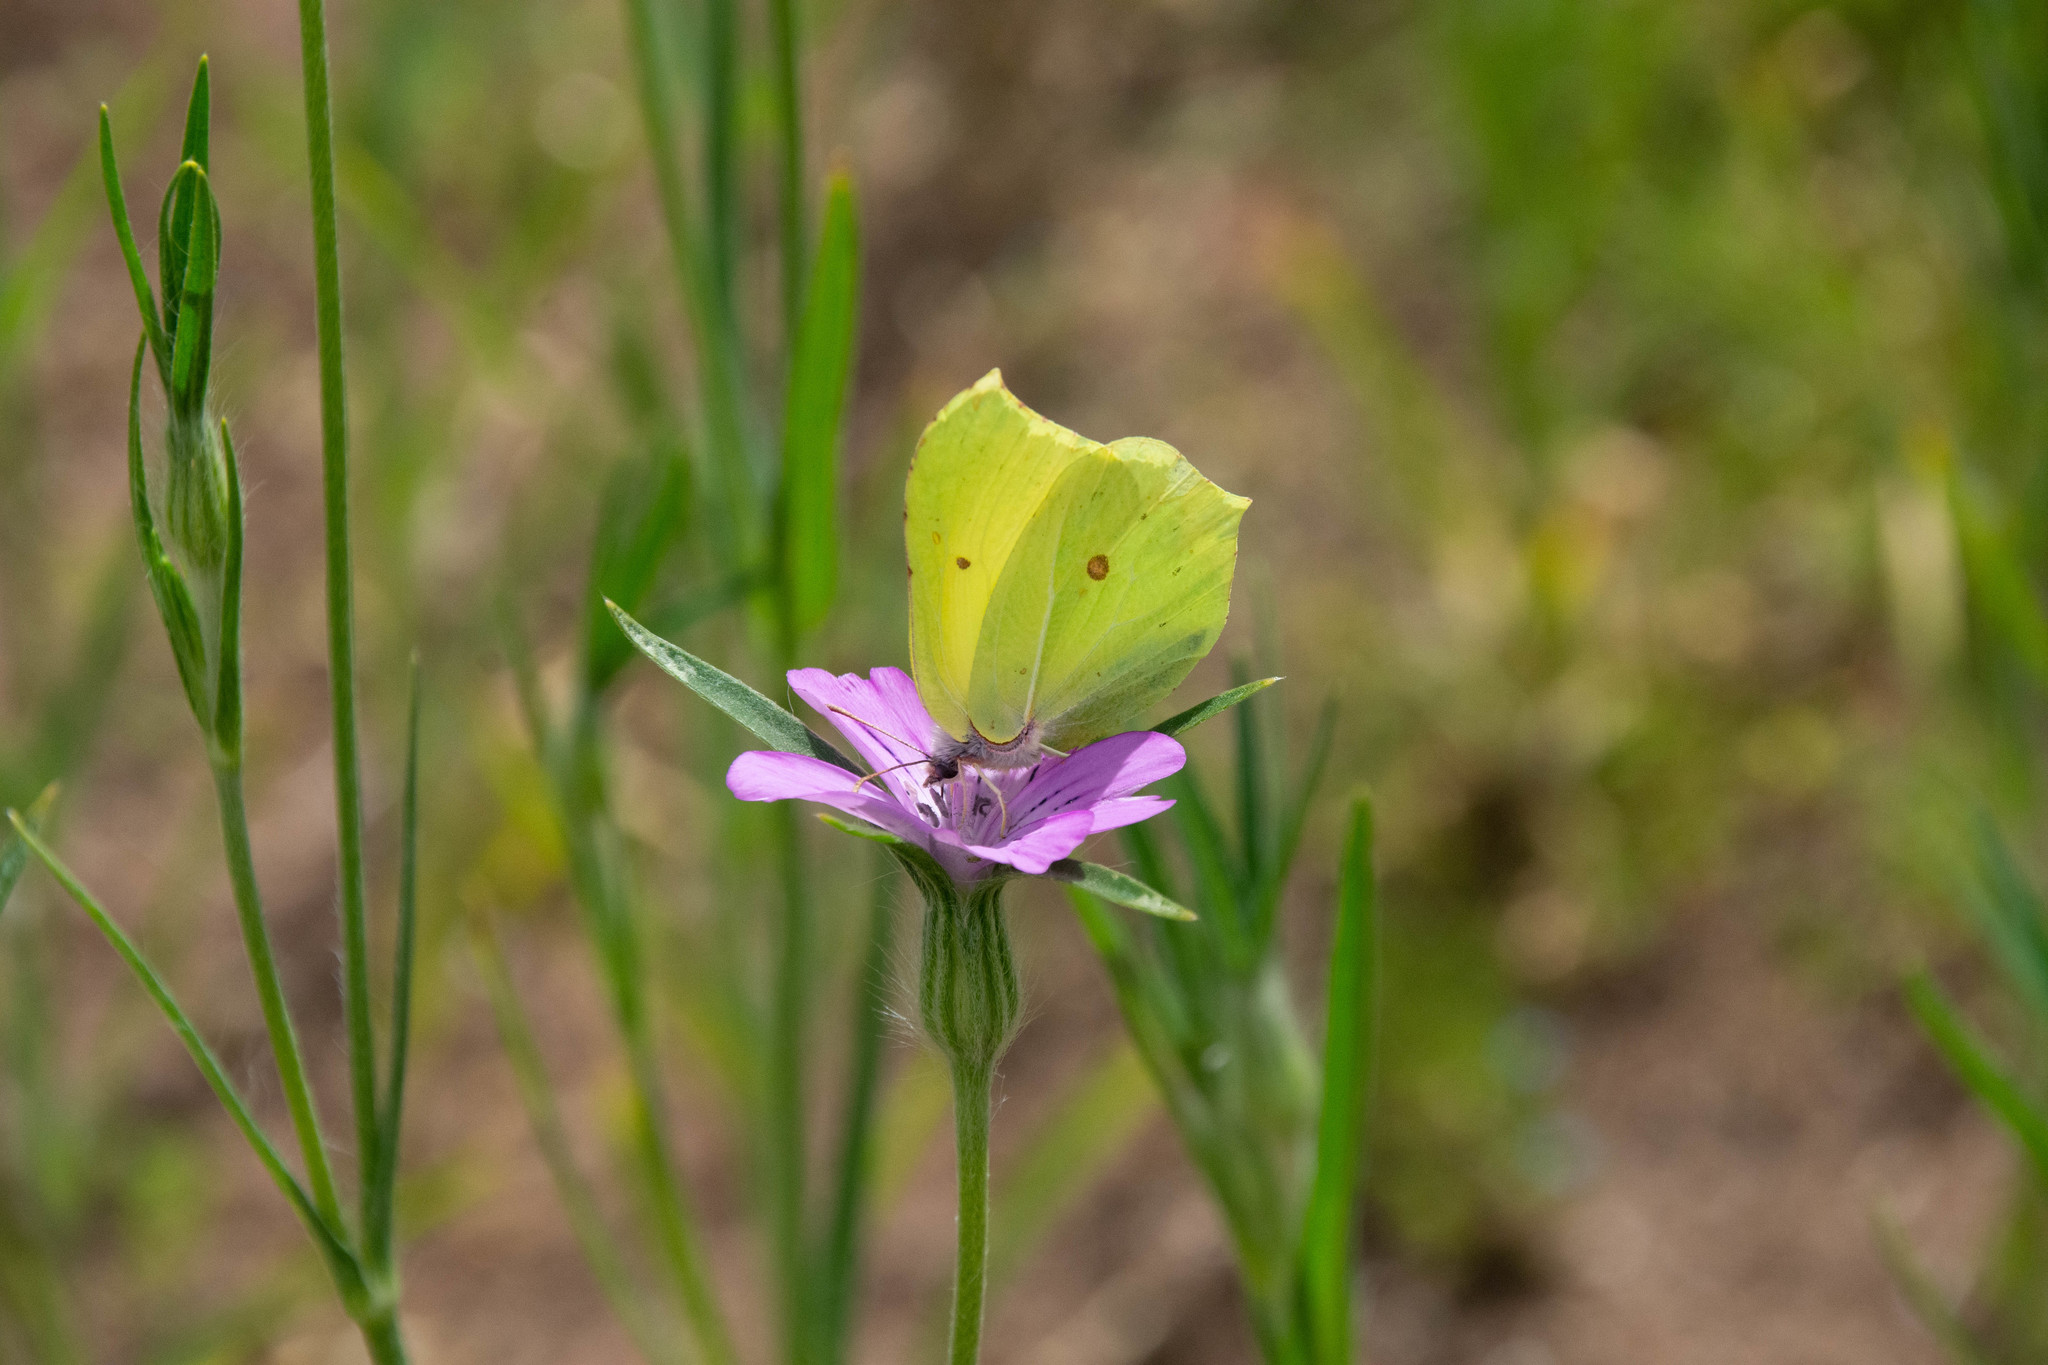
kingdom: Animalia
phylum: Arthropoda
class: Insecta
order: Lepidoptera
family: Pieridae
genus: Gonepteryx
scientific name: Gonepteryx rhamni
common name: Brimstone
